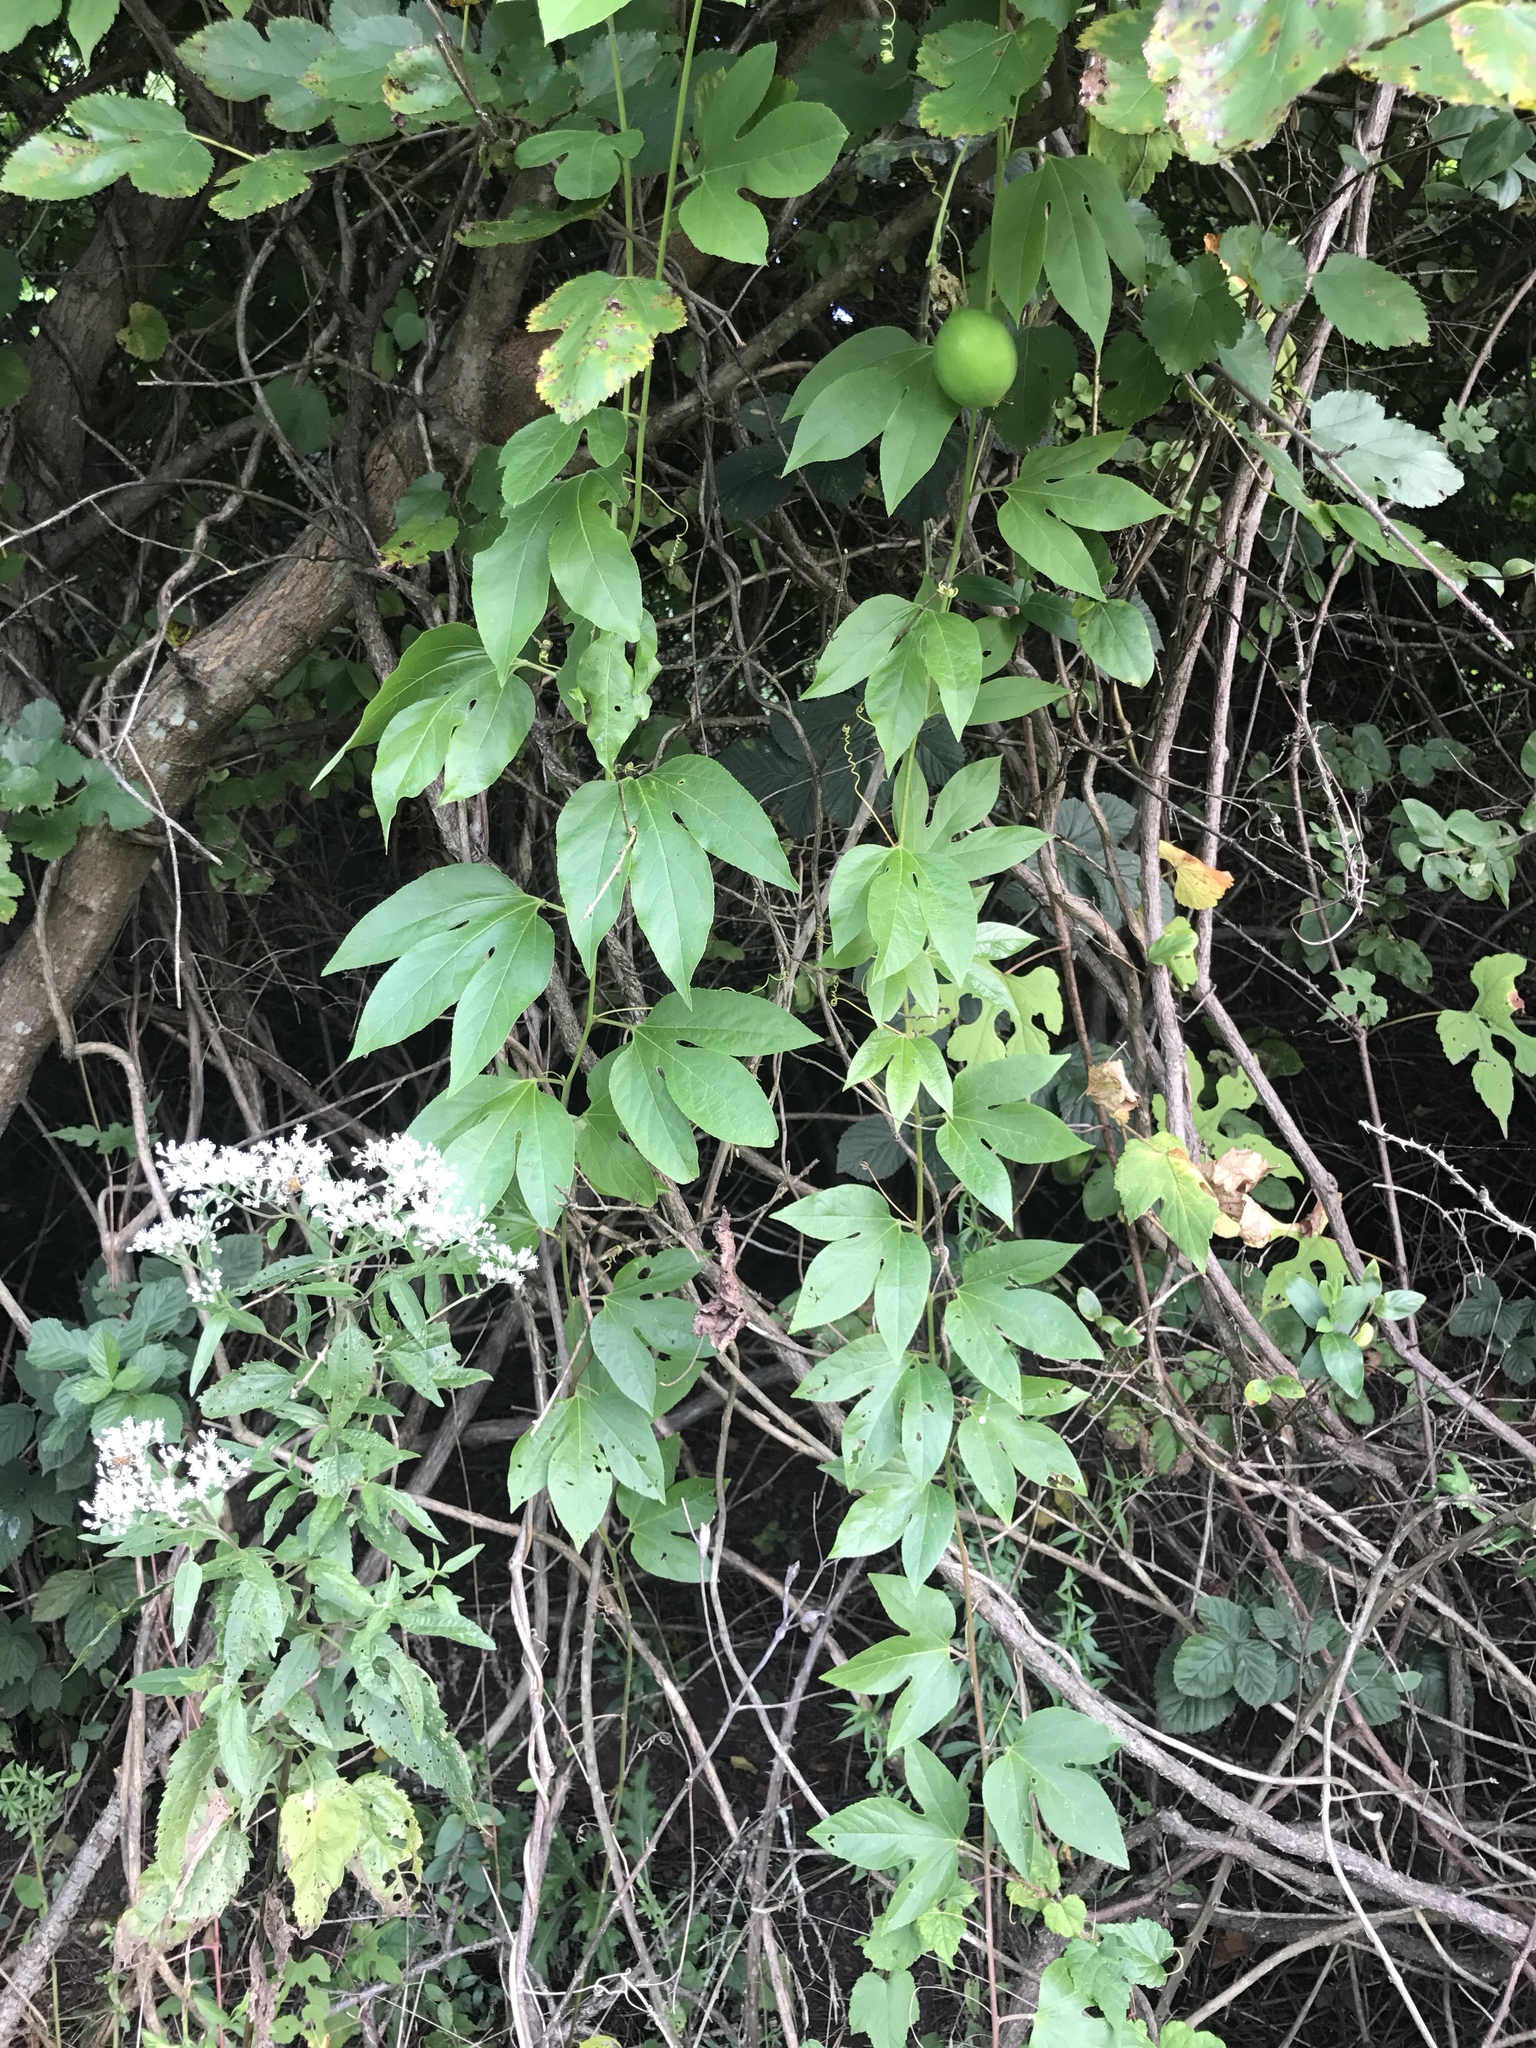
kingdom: Plantae
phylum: Tracheophyta
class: Magnoliopsida
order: Malpighiales
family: Passifloraceae
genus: Passiflora
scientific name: Passiflora incarnata
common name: Apricot-vine
